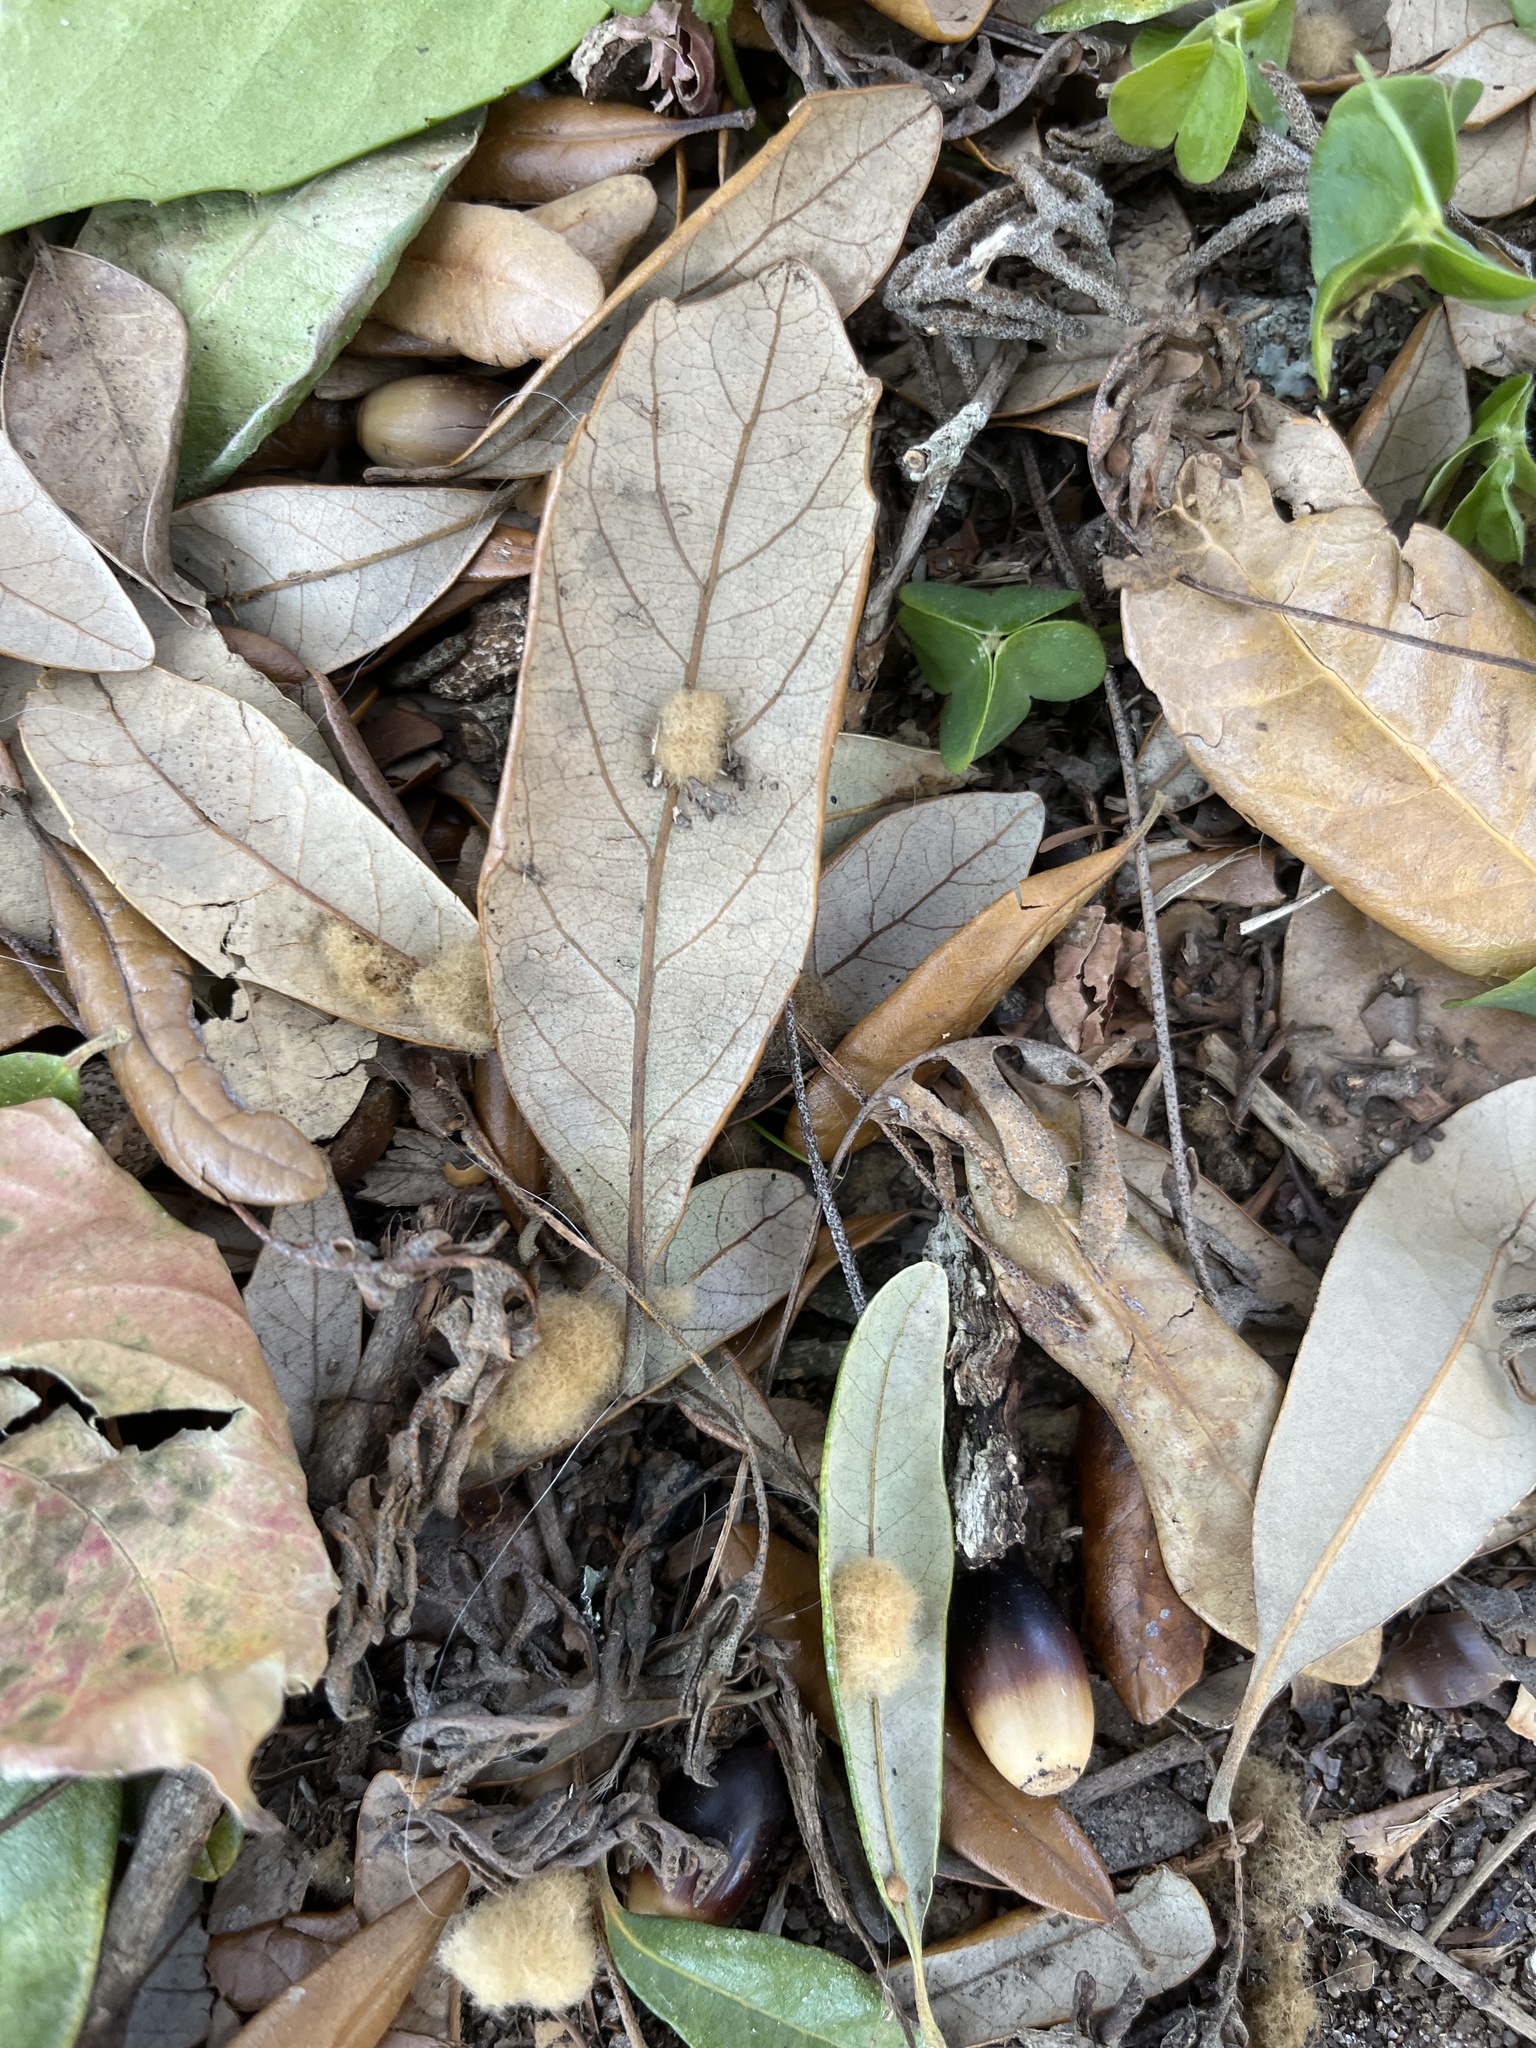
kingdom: Animalia
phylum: Arthropoda
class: Insecta
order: Hymenoptera
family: Cynipidae
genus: Andricus
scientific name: Andricus Druon quercuslanigerum
